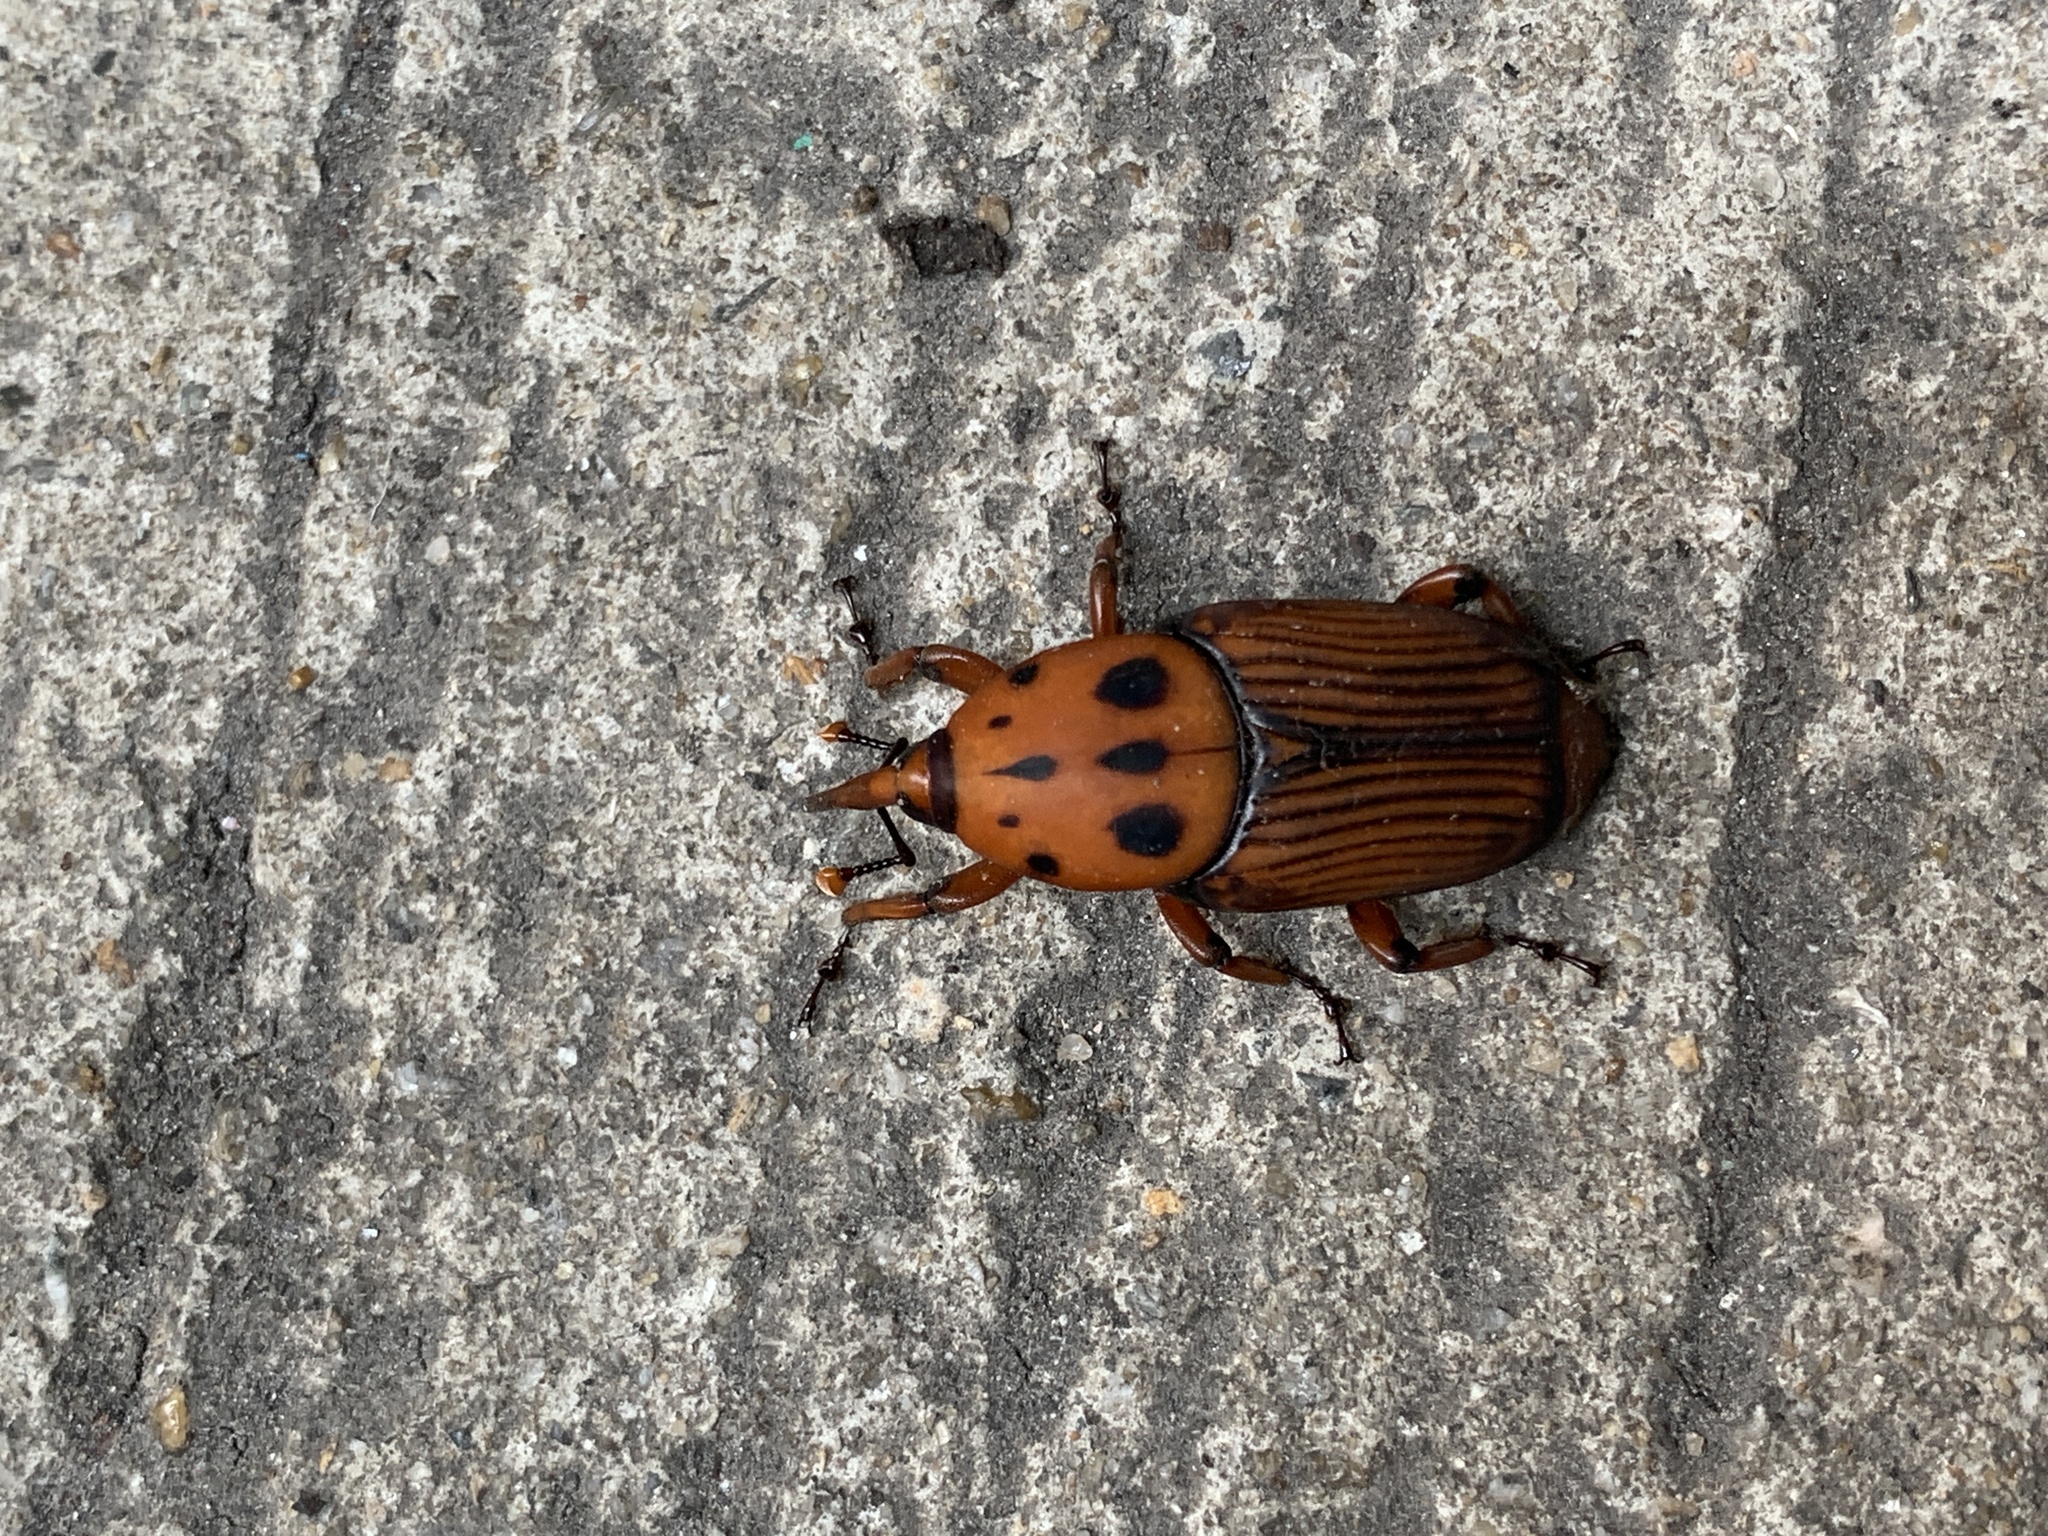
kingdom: Animalia
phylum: Arthropoda
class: Insecta
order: Coleoptera
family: Dryophthoridae
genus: Rhynchophorus
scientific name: Rhynchophorus ferrugineus
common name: Red palm weevil
